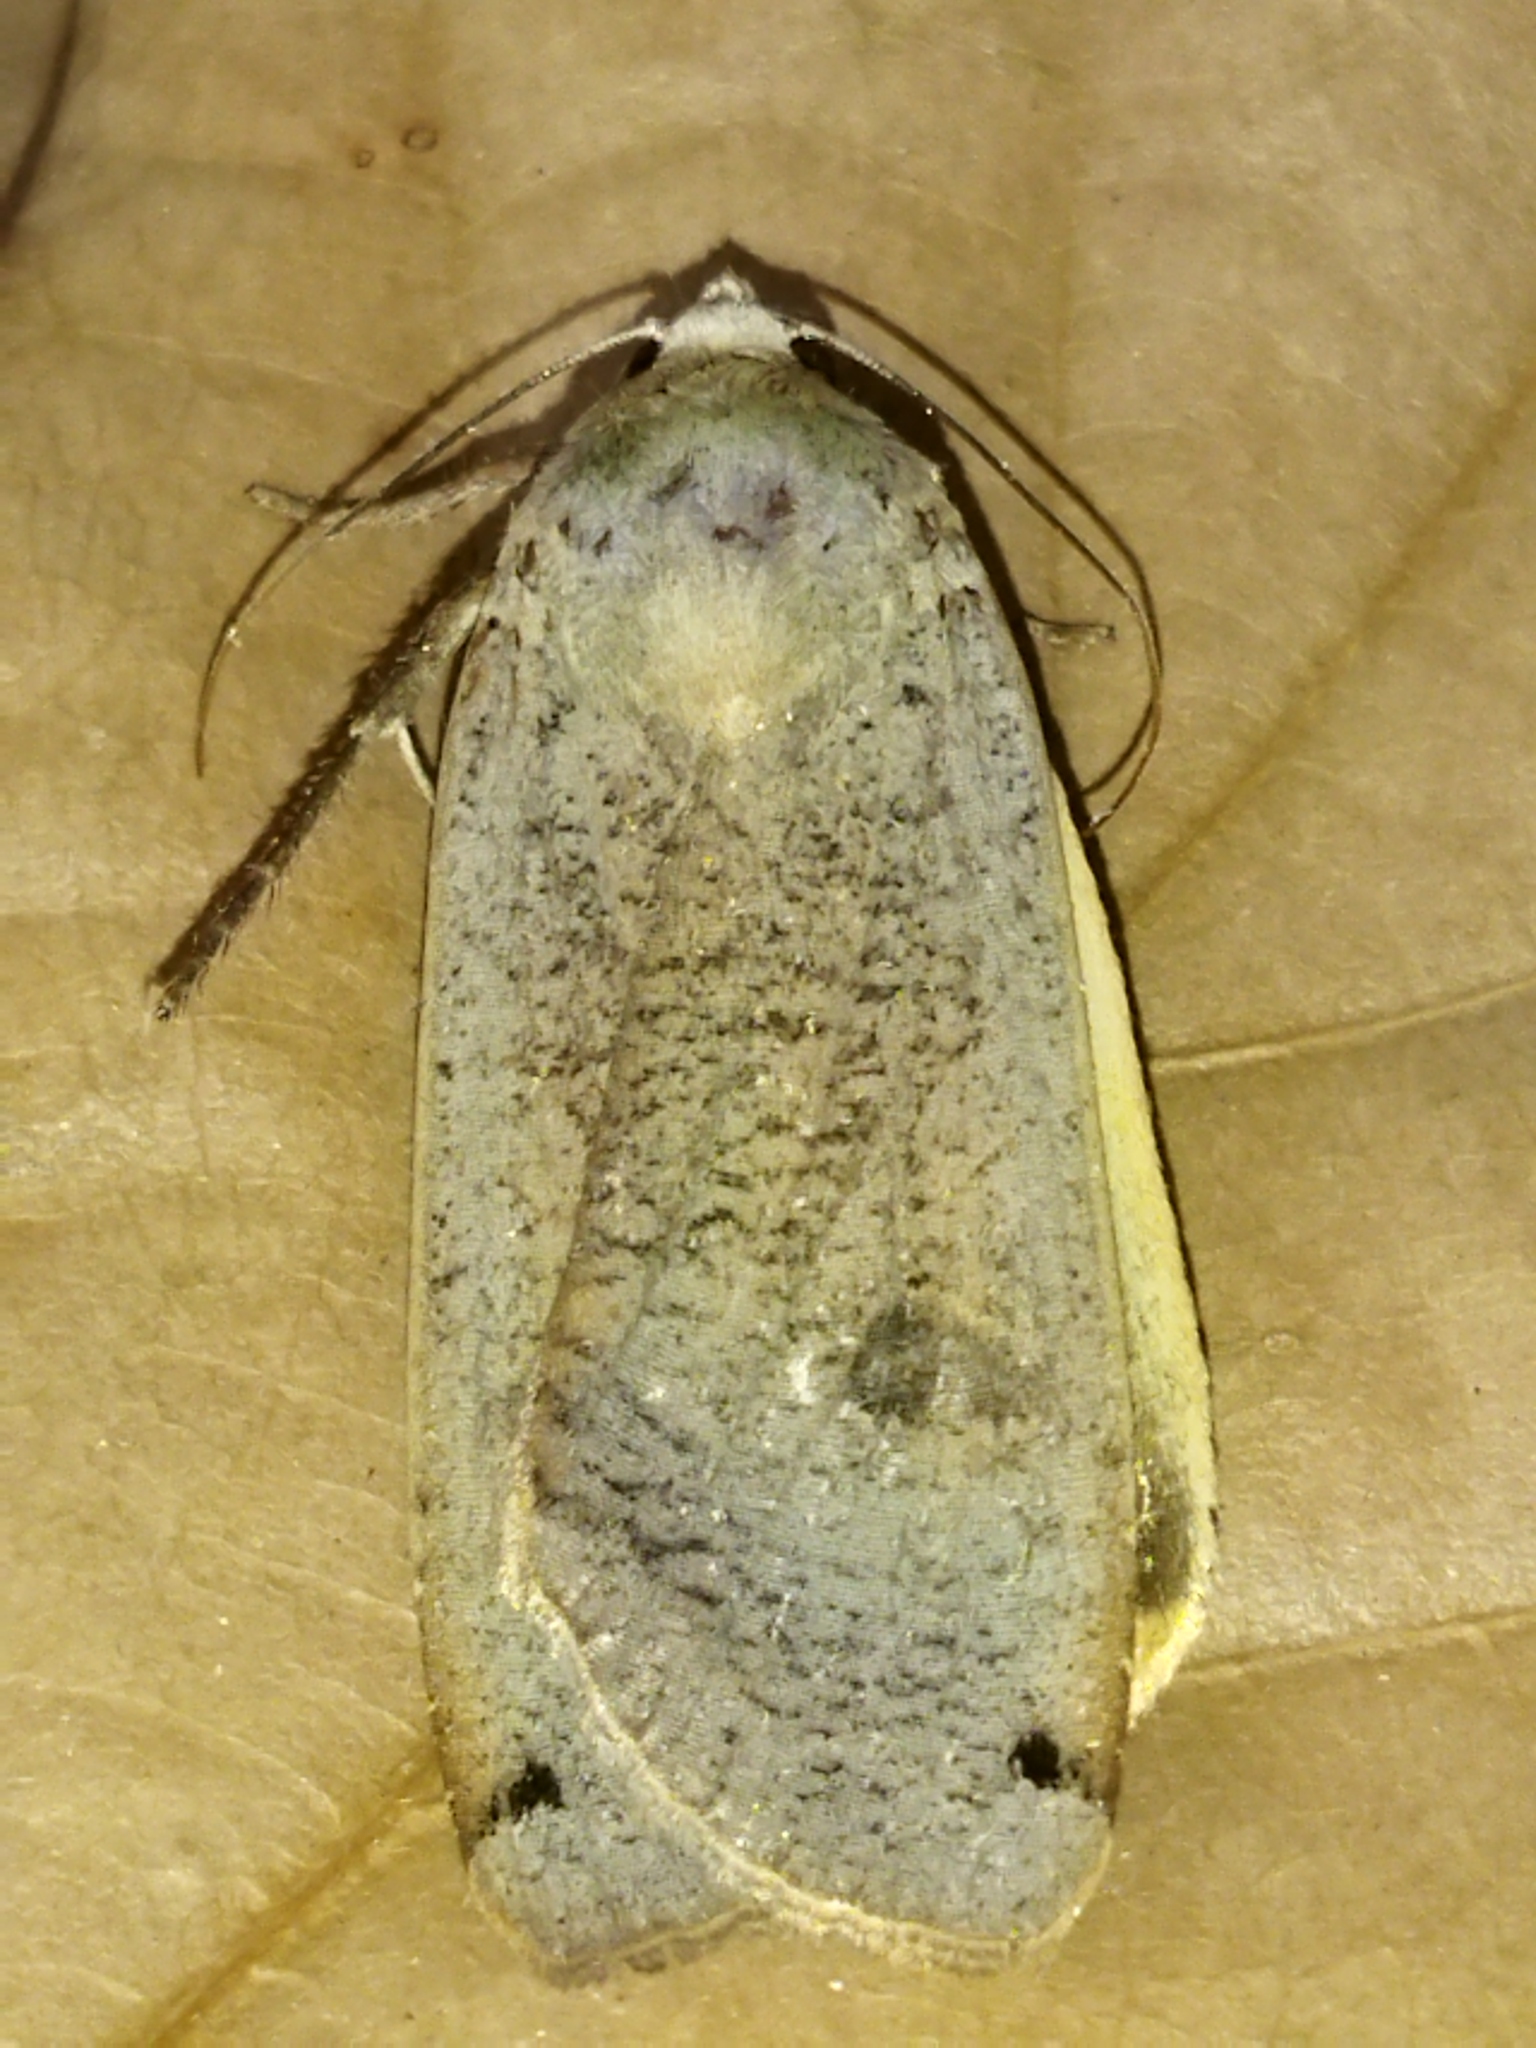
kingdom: Animalia
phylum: Arthropoda
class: Insecta
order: Lepidoptera
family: Noctuidae
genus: Noctua
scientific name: Noctua pronuba
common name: Large yellow underwing
